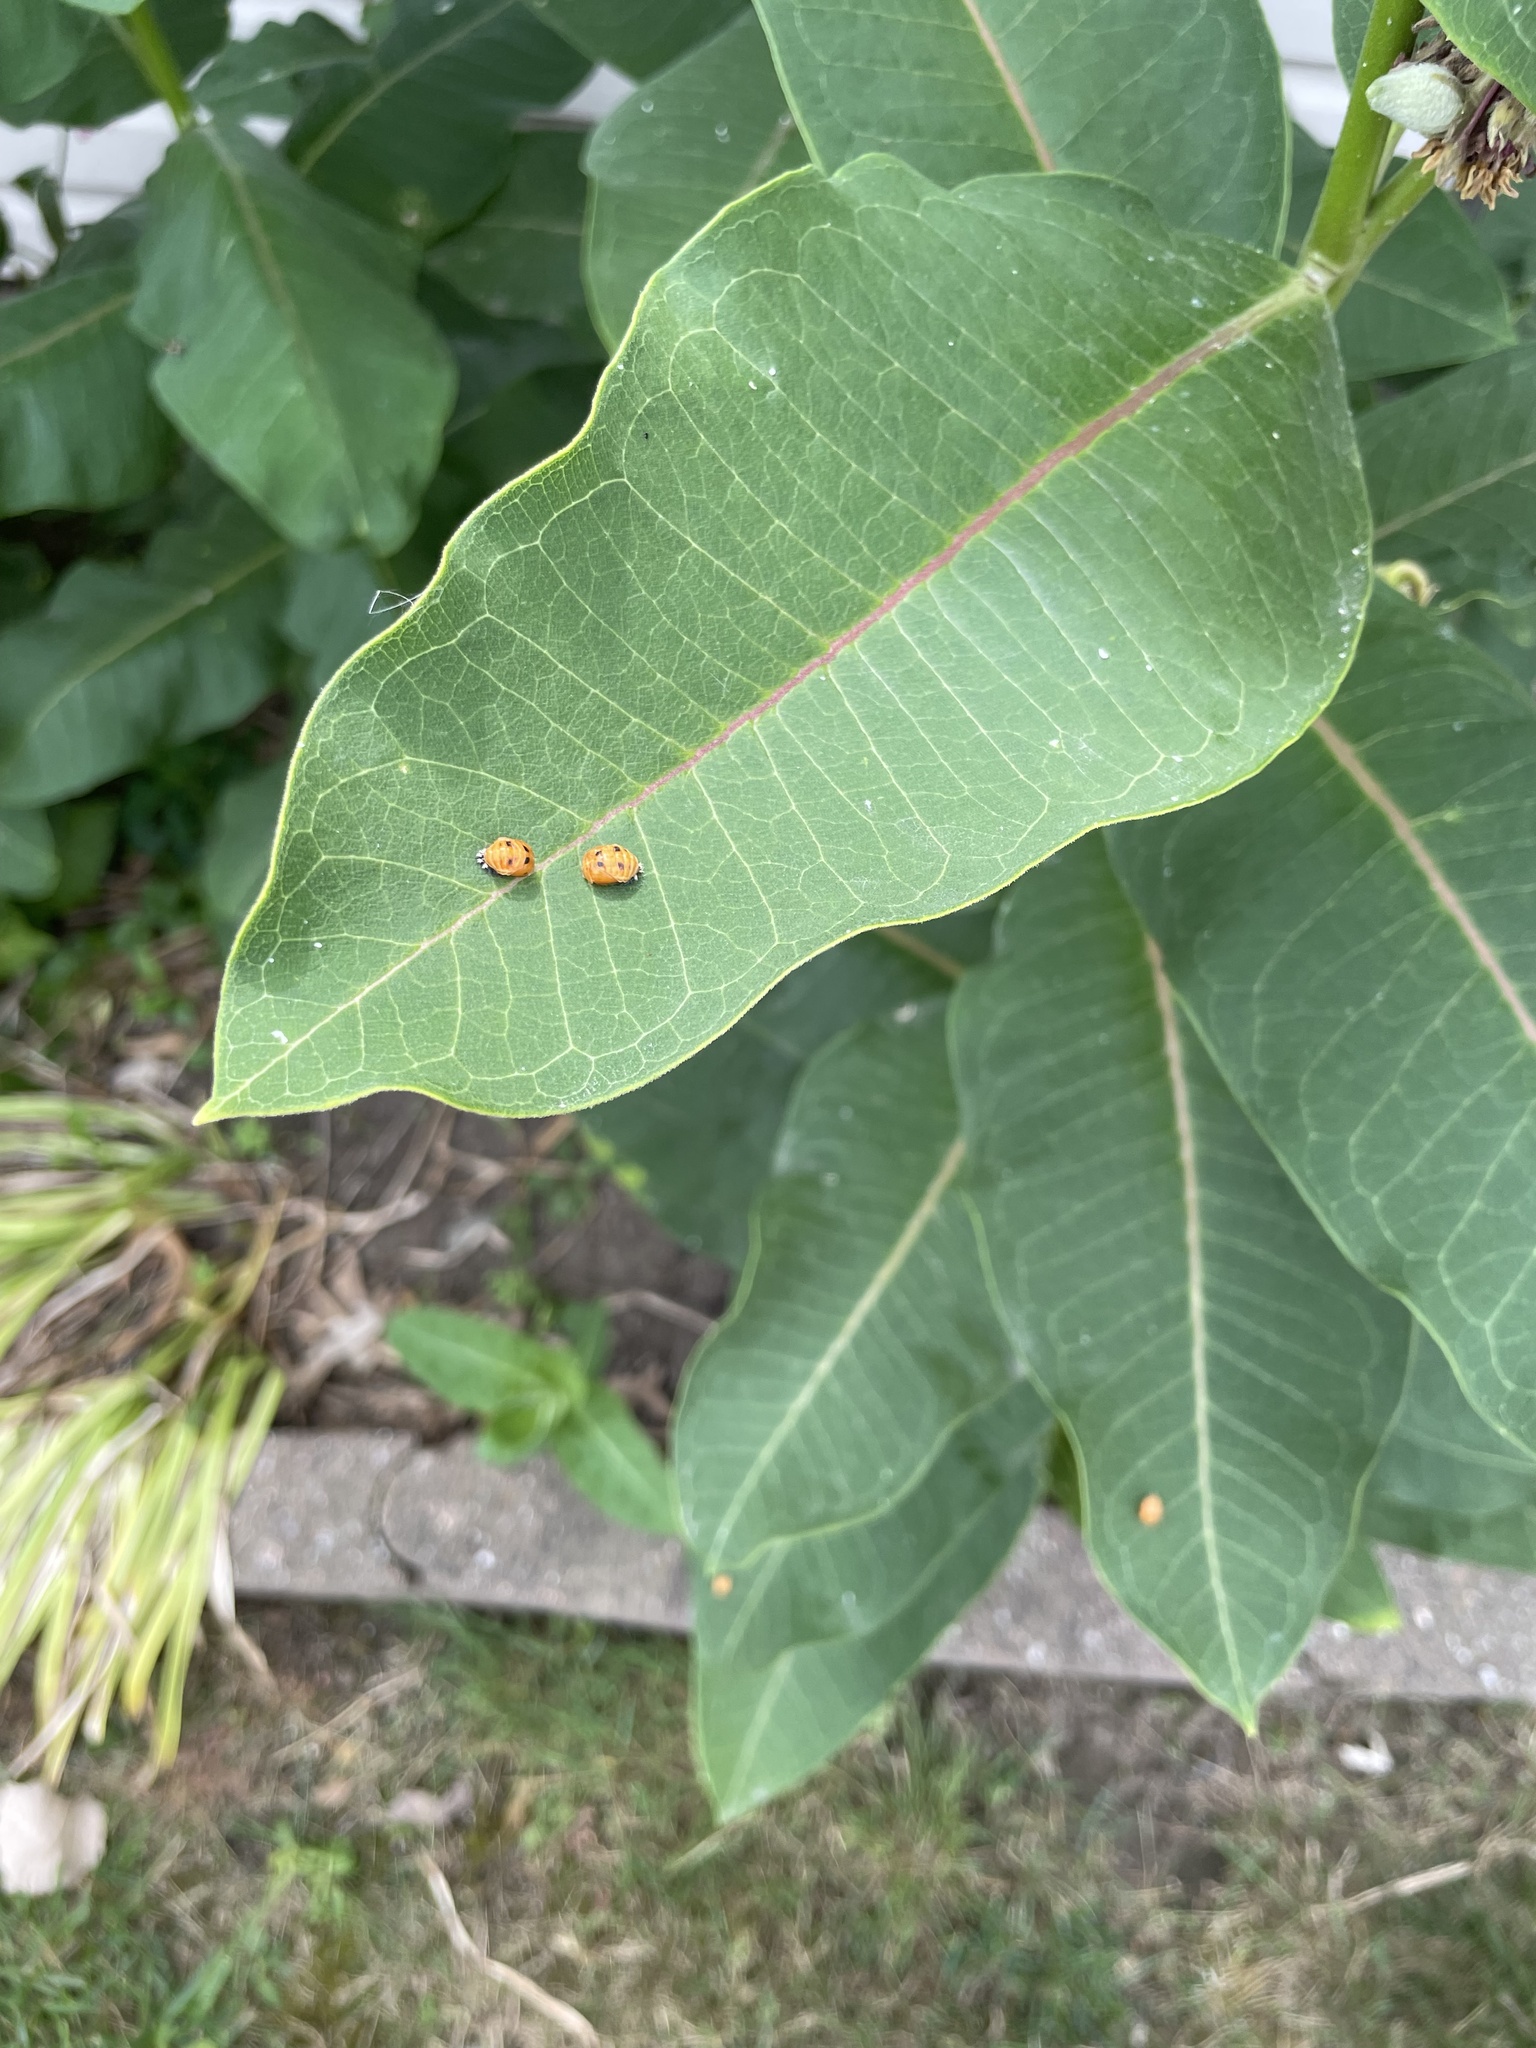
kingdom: Animalia
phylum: Arthropoda
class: Insecta
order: Coleoptera
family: Coccinellidae
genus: Harmonia
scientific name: Harmonia axyridis
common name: Harlequin ladybird
